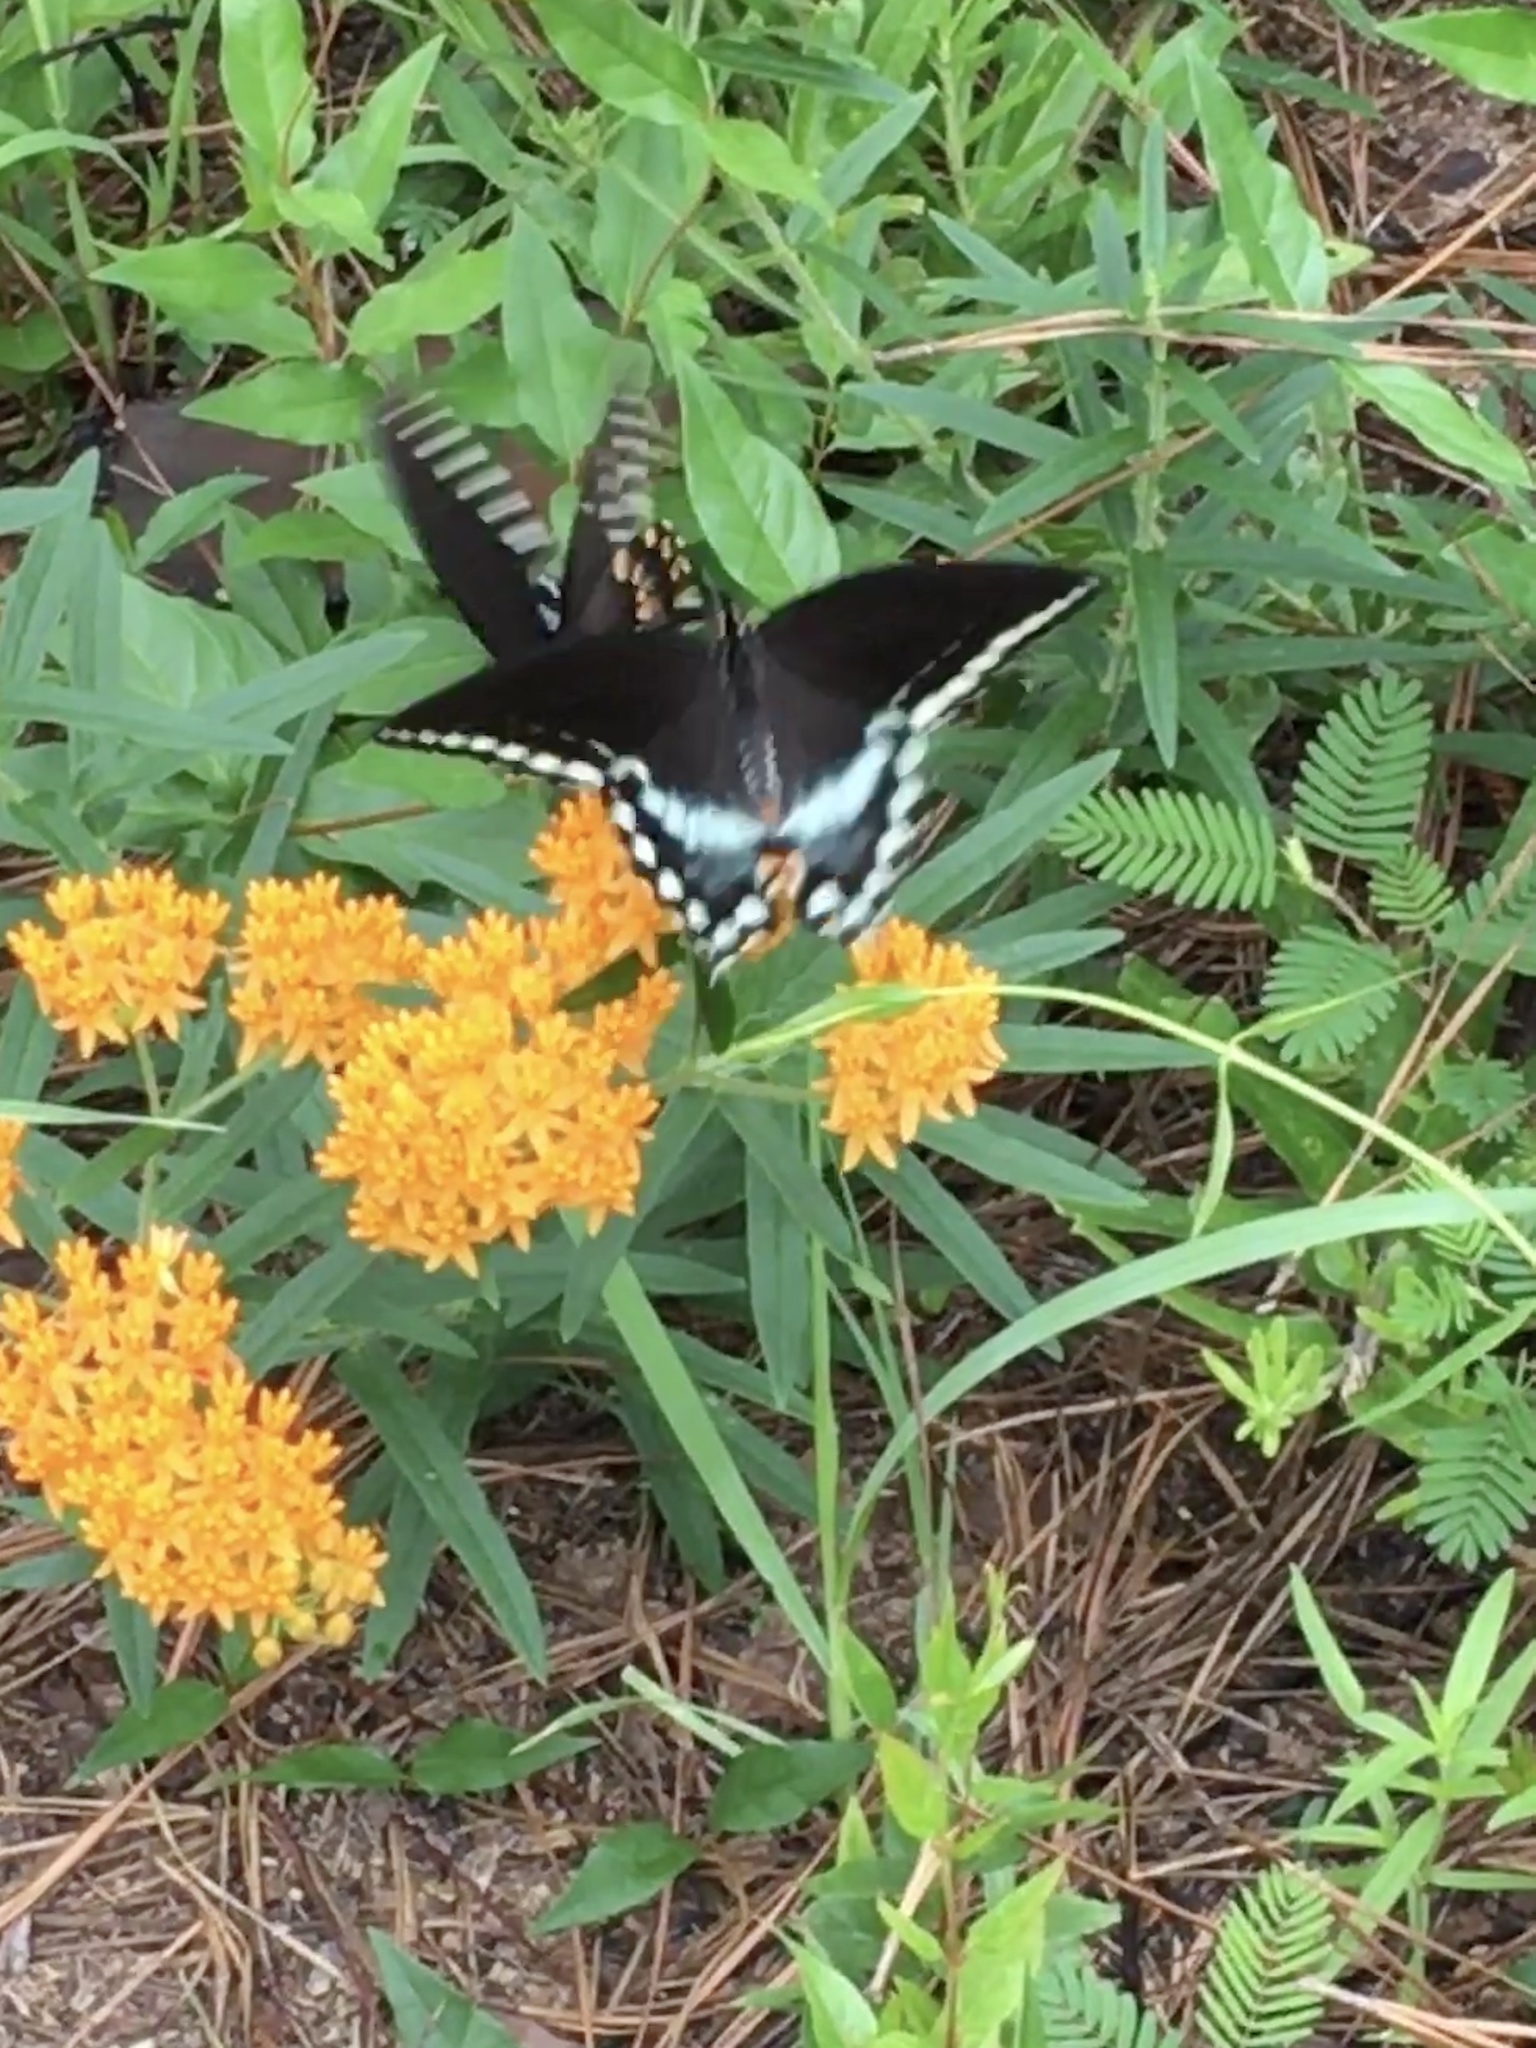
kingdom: Animalia
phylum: Arthropoda
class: Insecta
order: Lepidoptera
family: Papilionidae
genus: Papilio
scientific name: Papilio troilus
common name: Spicebush swallowtail
